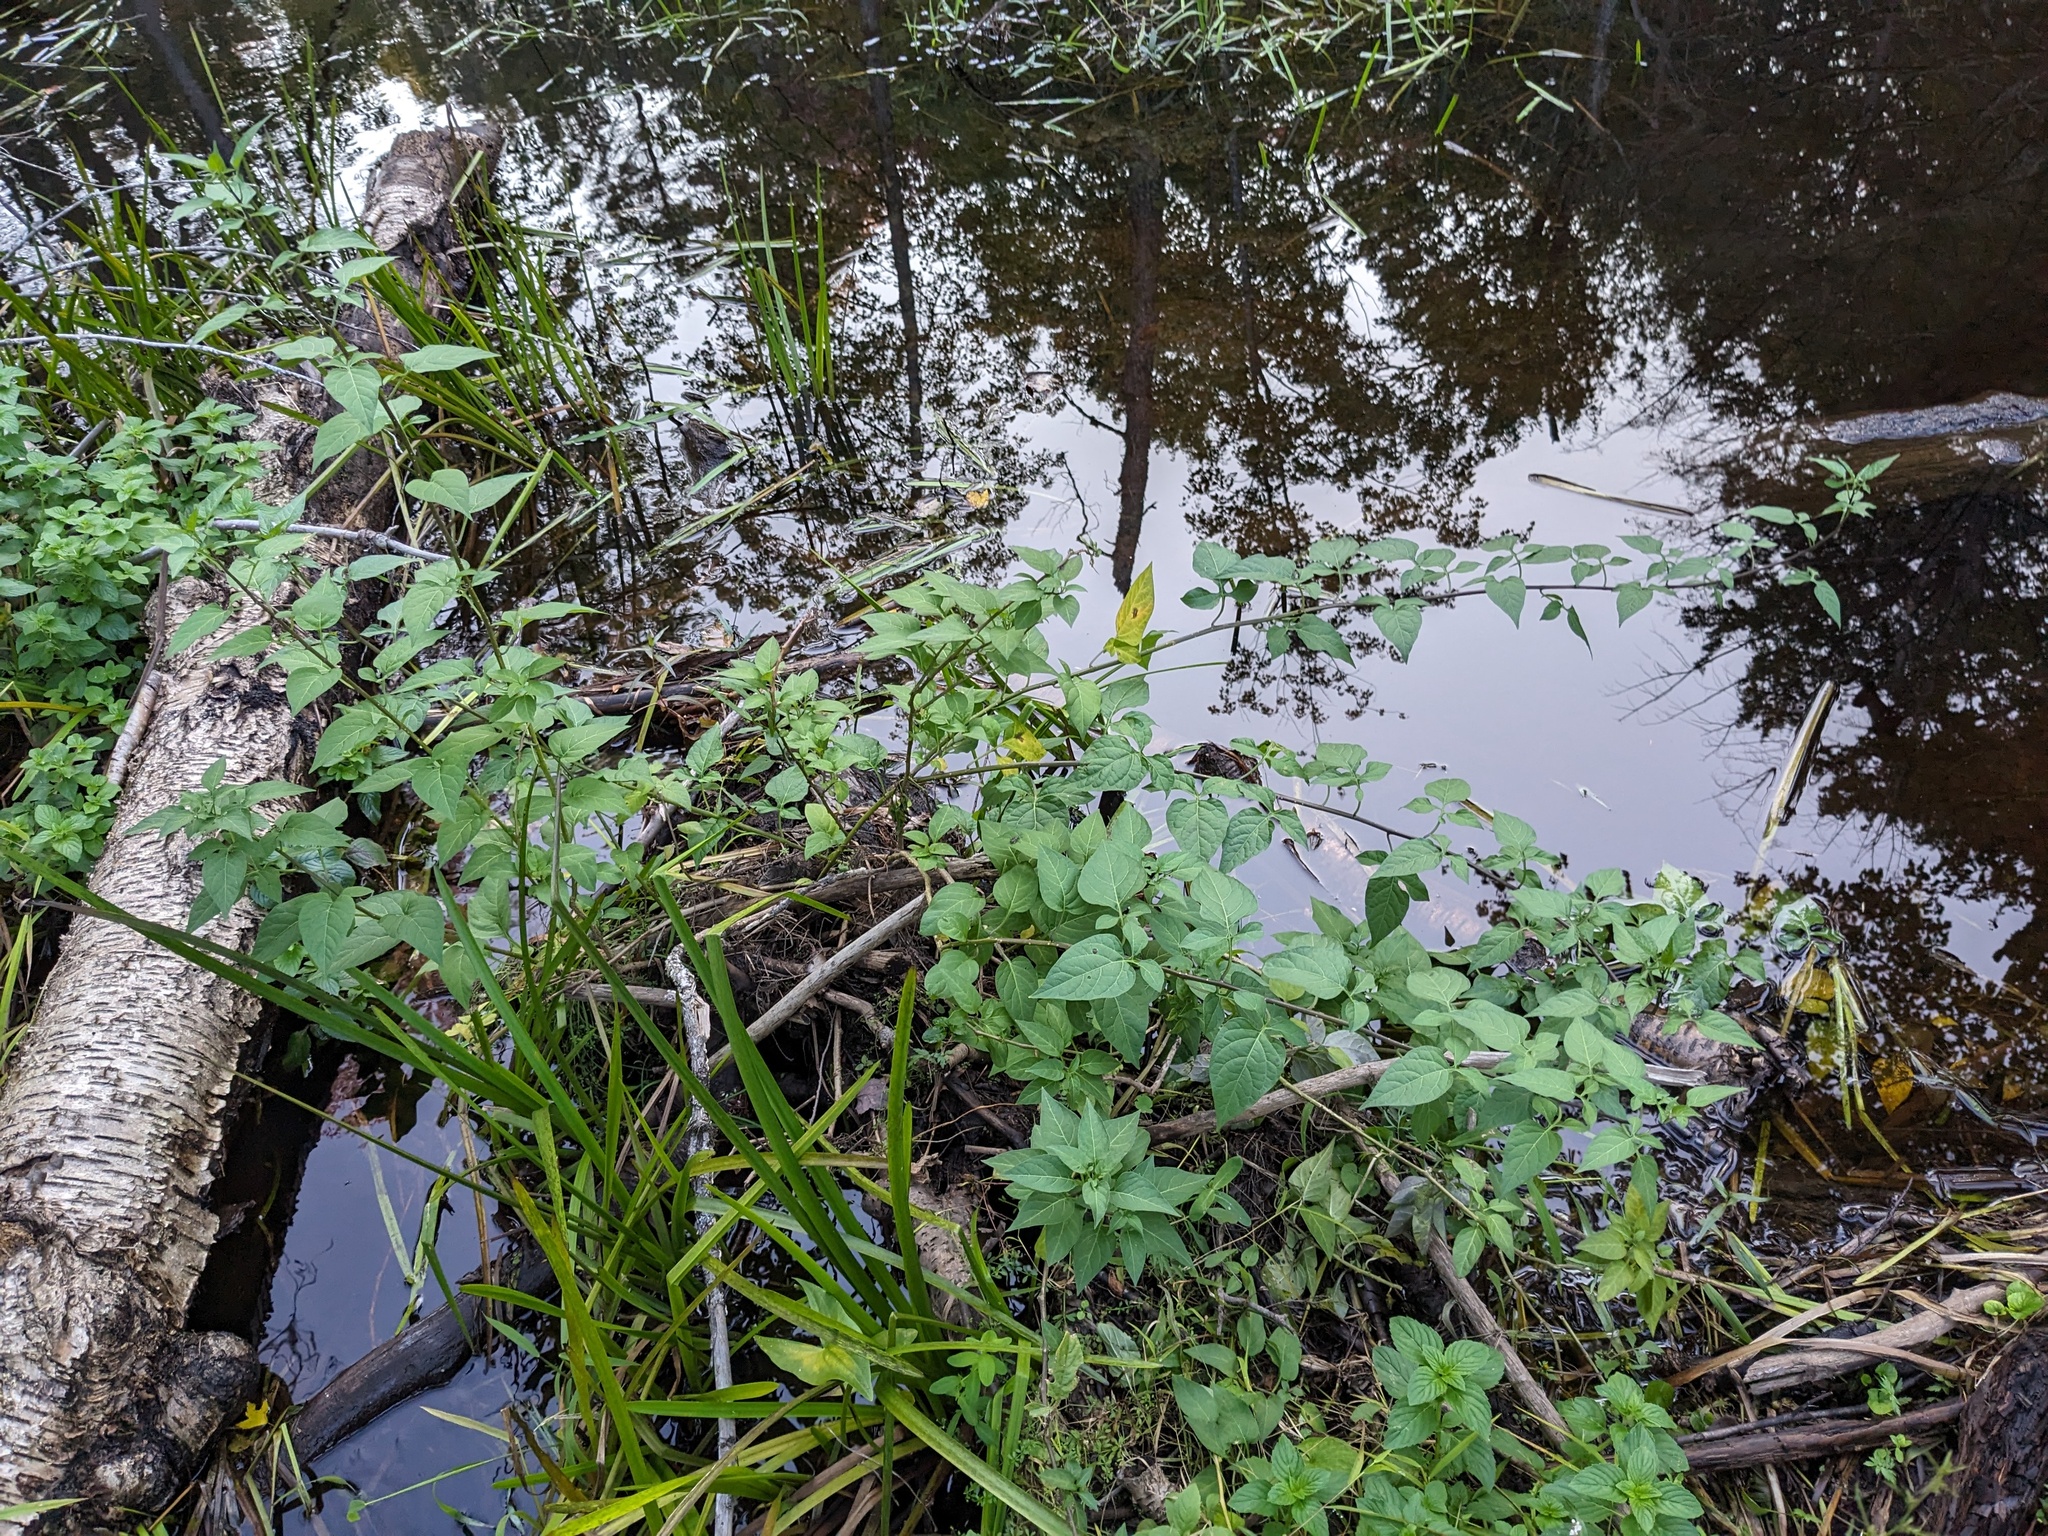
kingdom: Plantae
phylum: Tracheophyta
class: Magnoliopsida
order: Solanales
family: Solanaceae
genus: Solanum
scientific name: Solanum dulcamara
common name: Climbing nightshade
